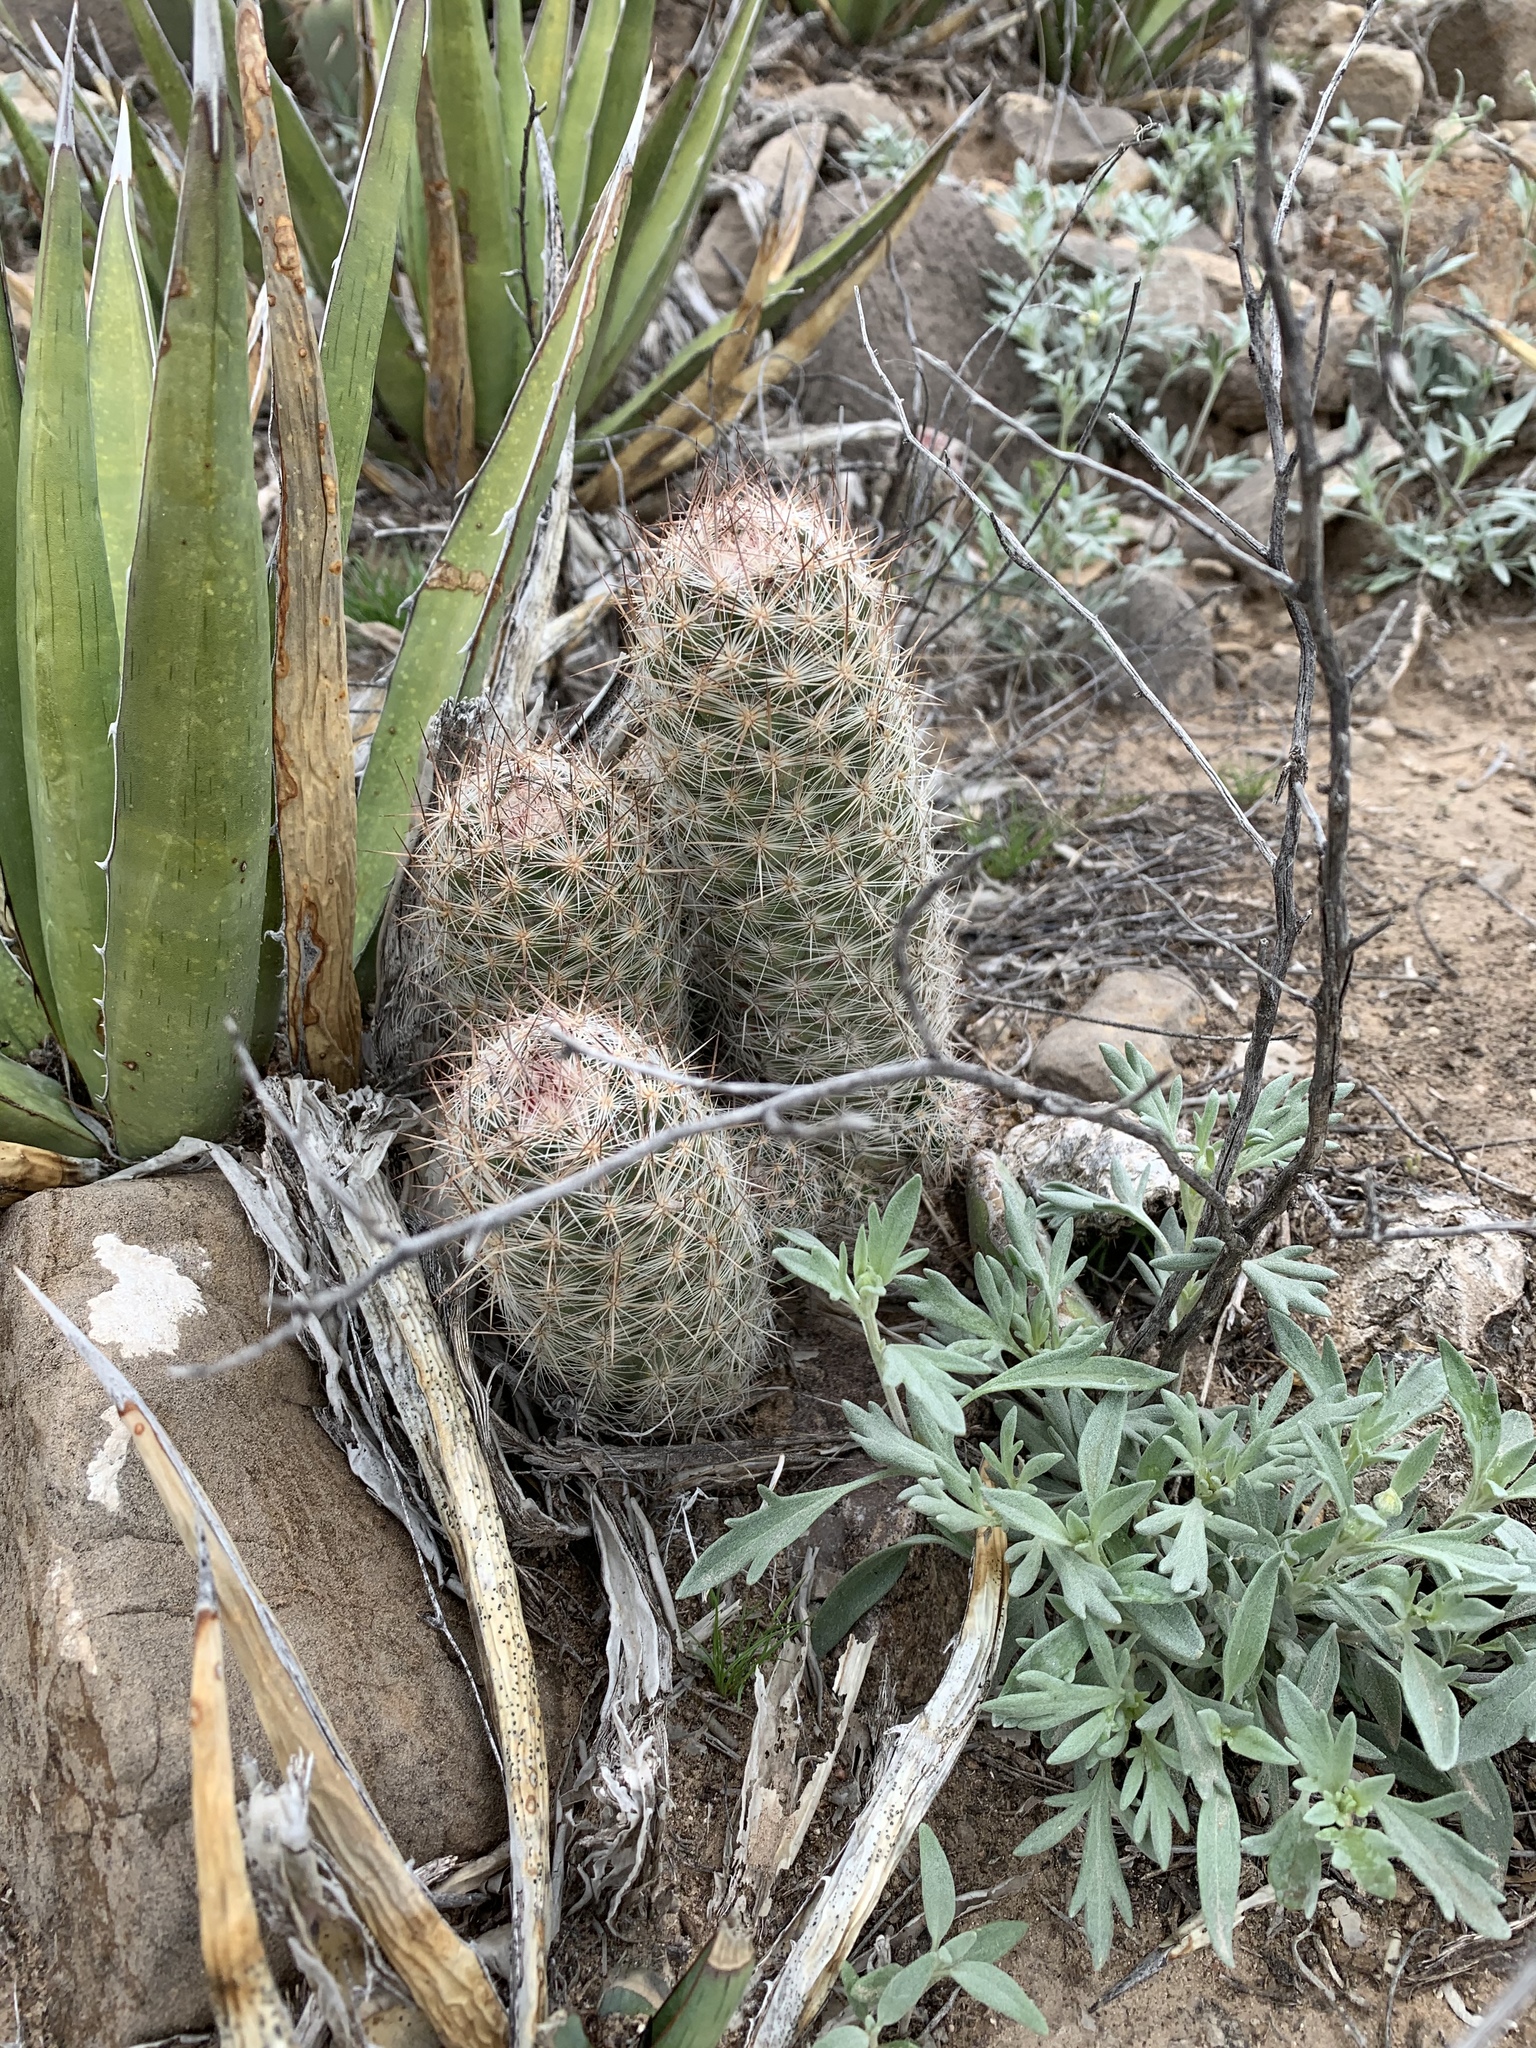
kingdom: Plantae
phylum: Tracheophyta
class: Magnoliopsida
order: Caryophyllales
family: Cactaceae
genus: Pelecyphora
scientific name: Pelecyphora tuberculosa
